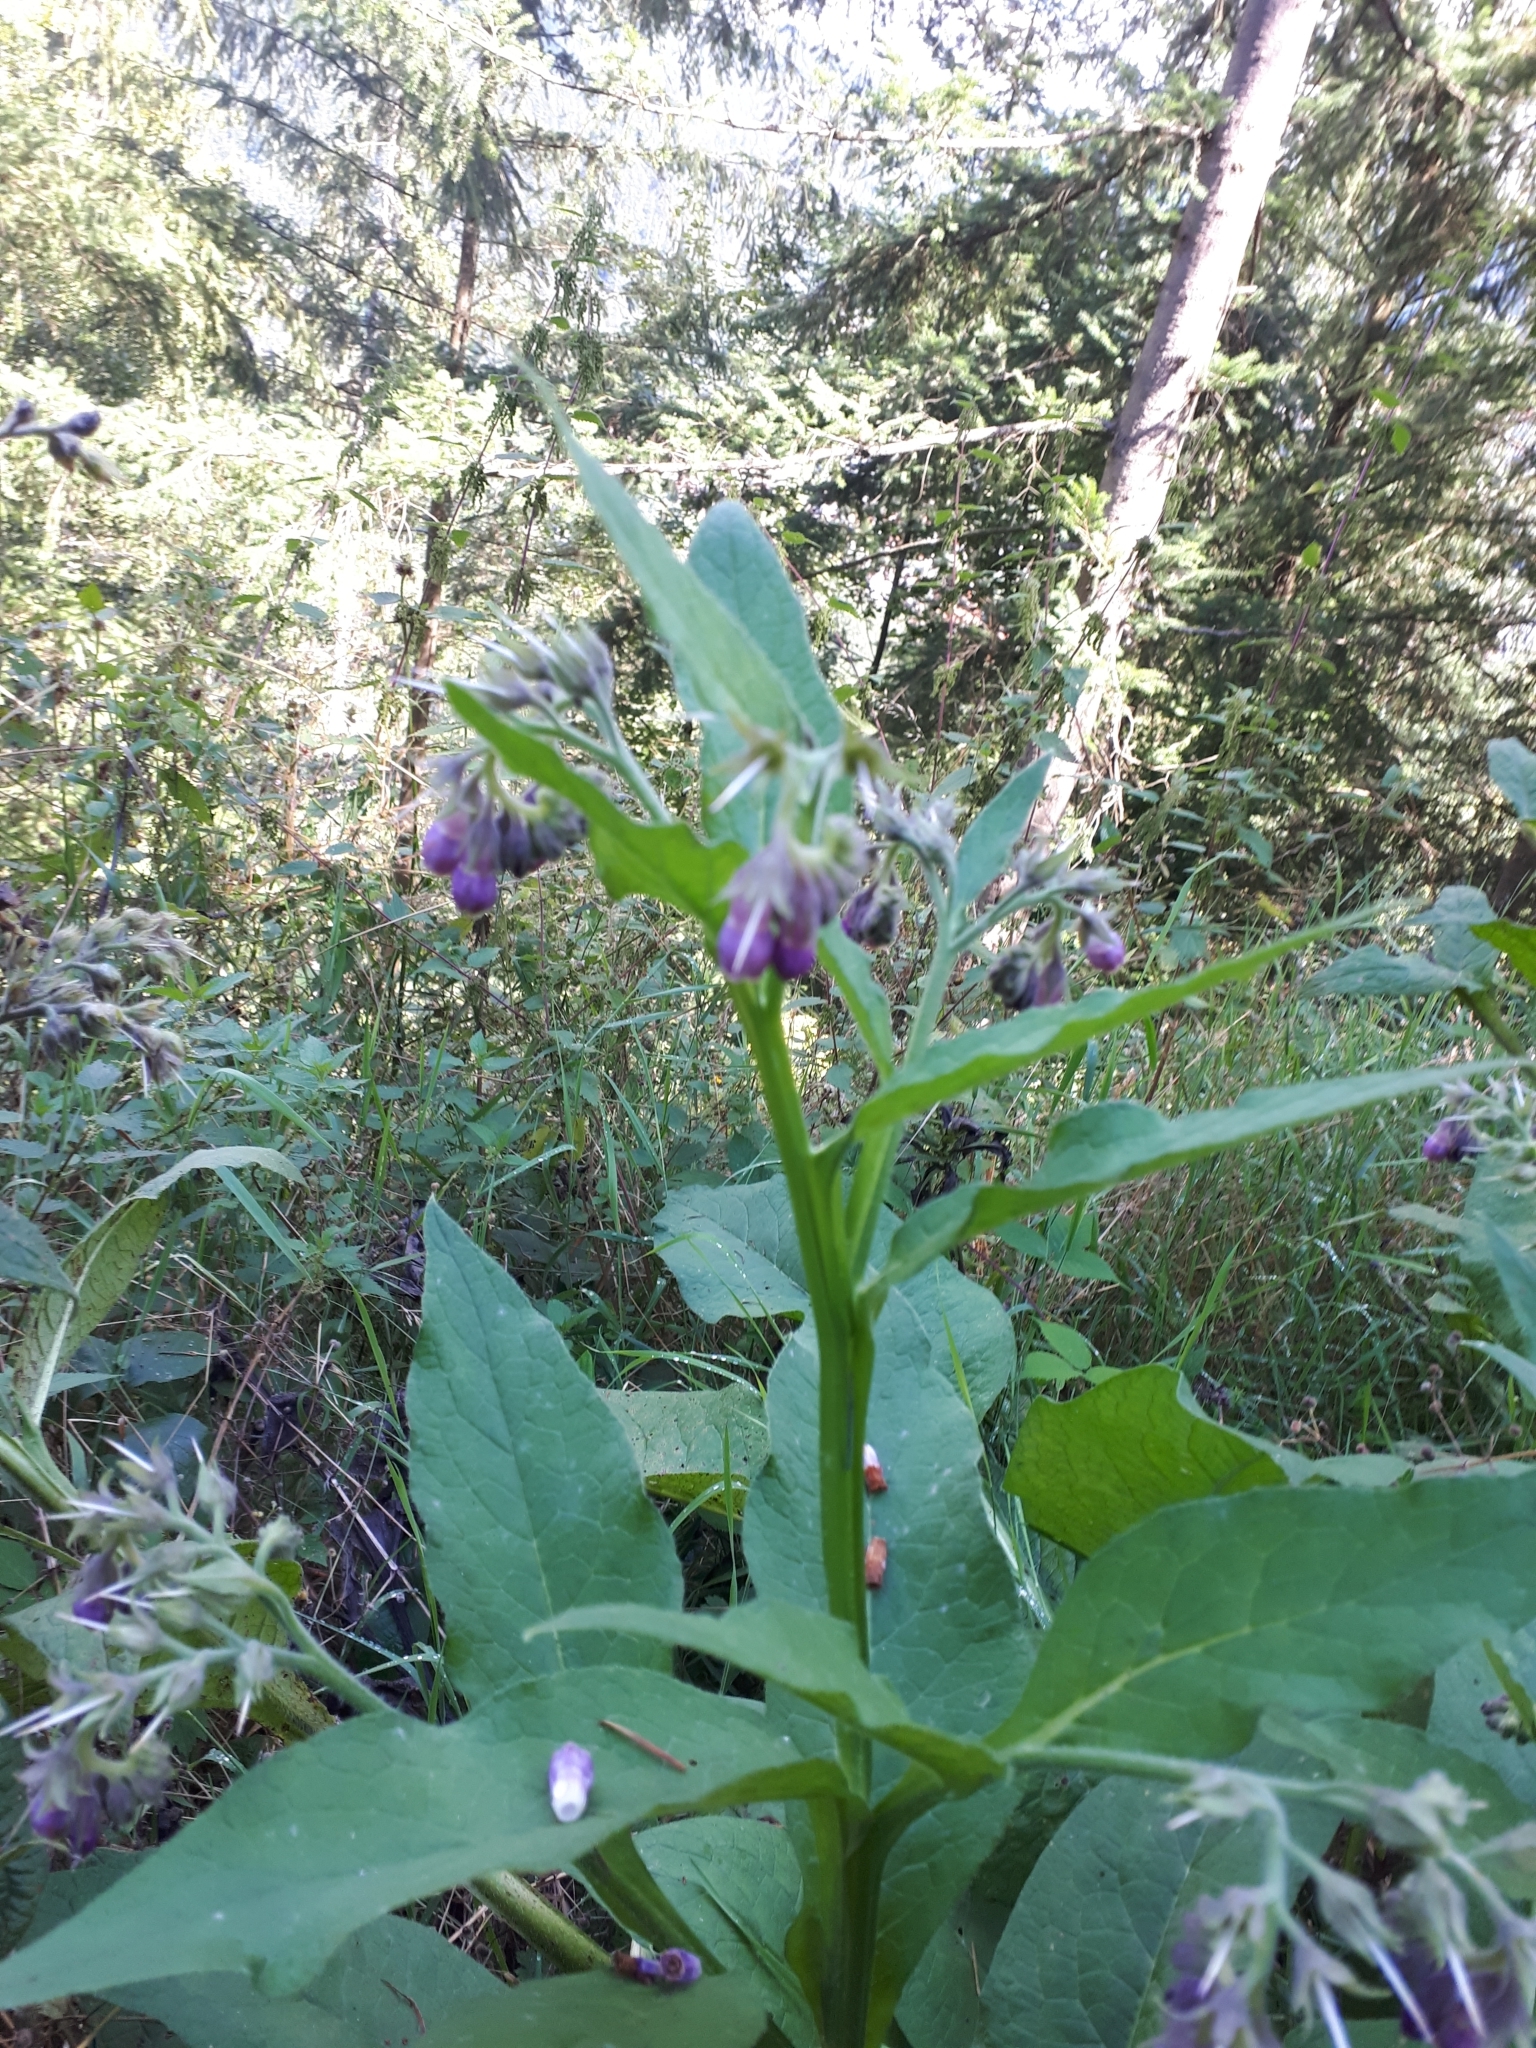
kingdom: Plantae
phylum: Tracheophyta
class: Magnoliopsida
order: Boraginales
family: Boraginaceae
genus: Symphytum
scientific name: Symphytum officinale
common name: Common comfrey
